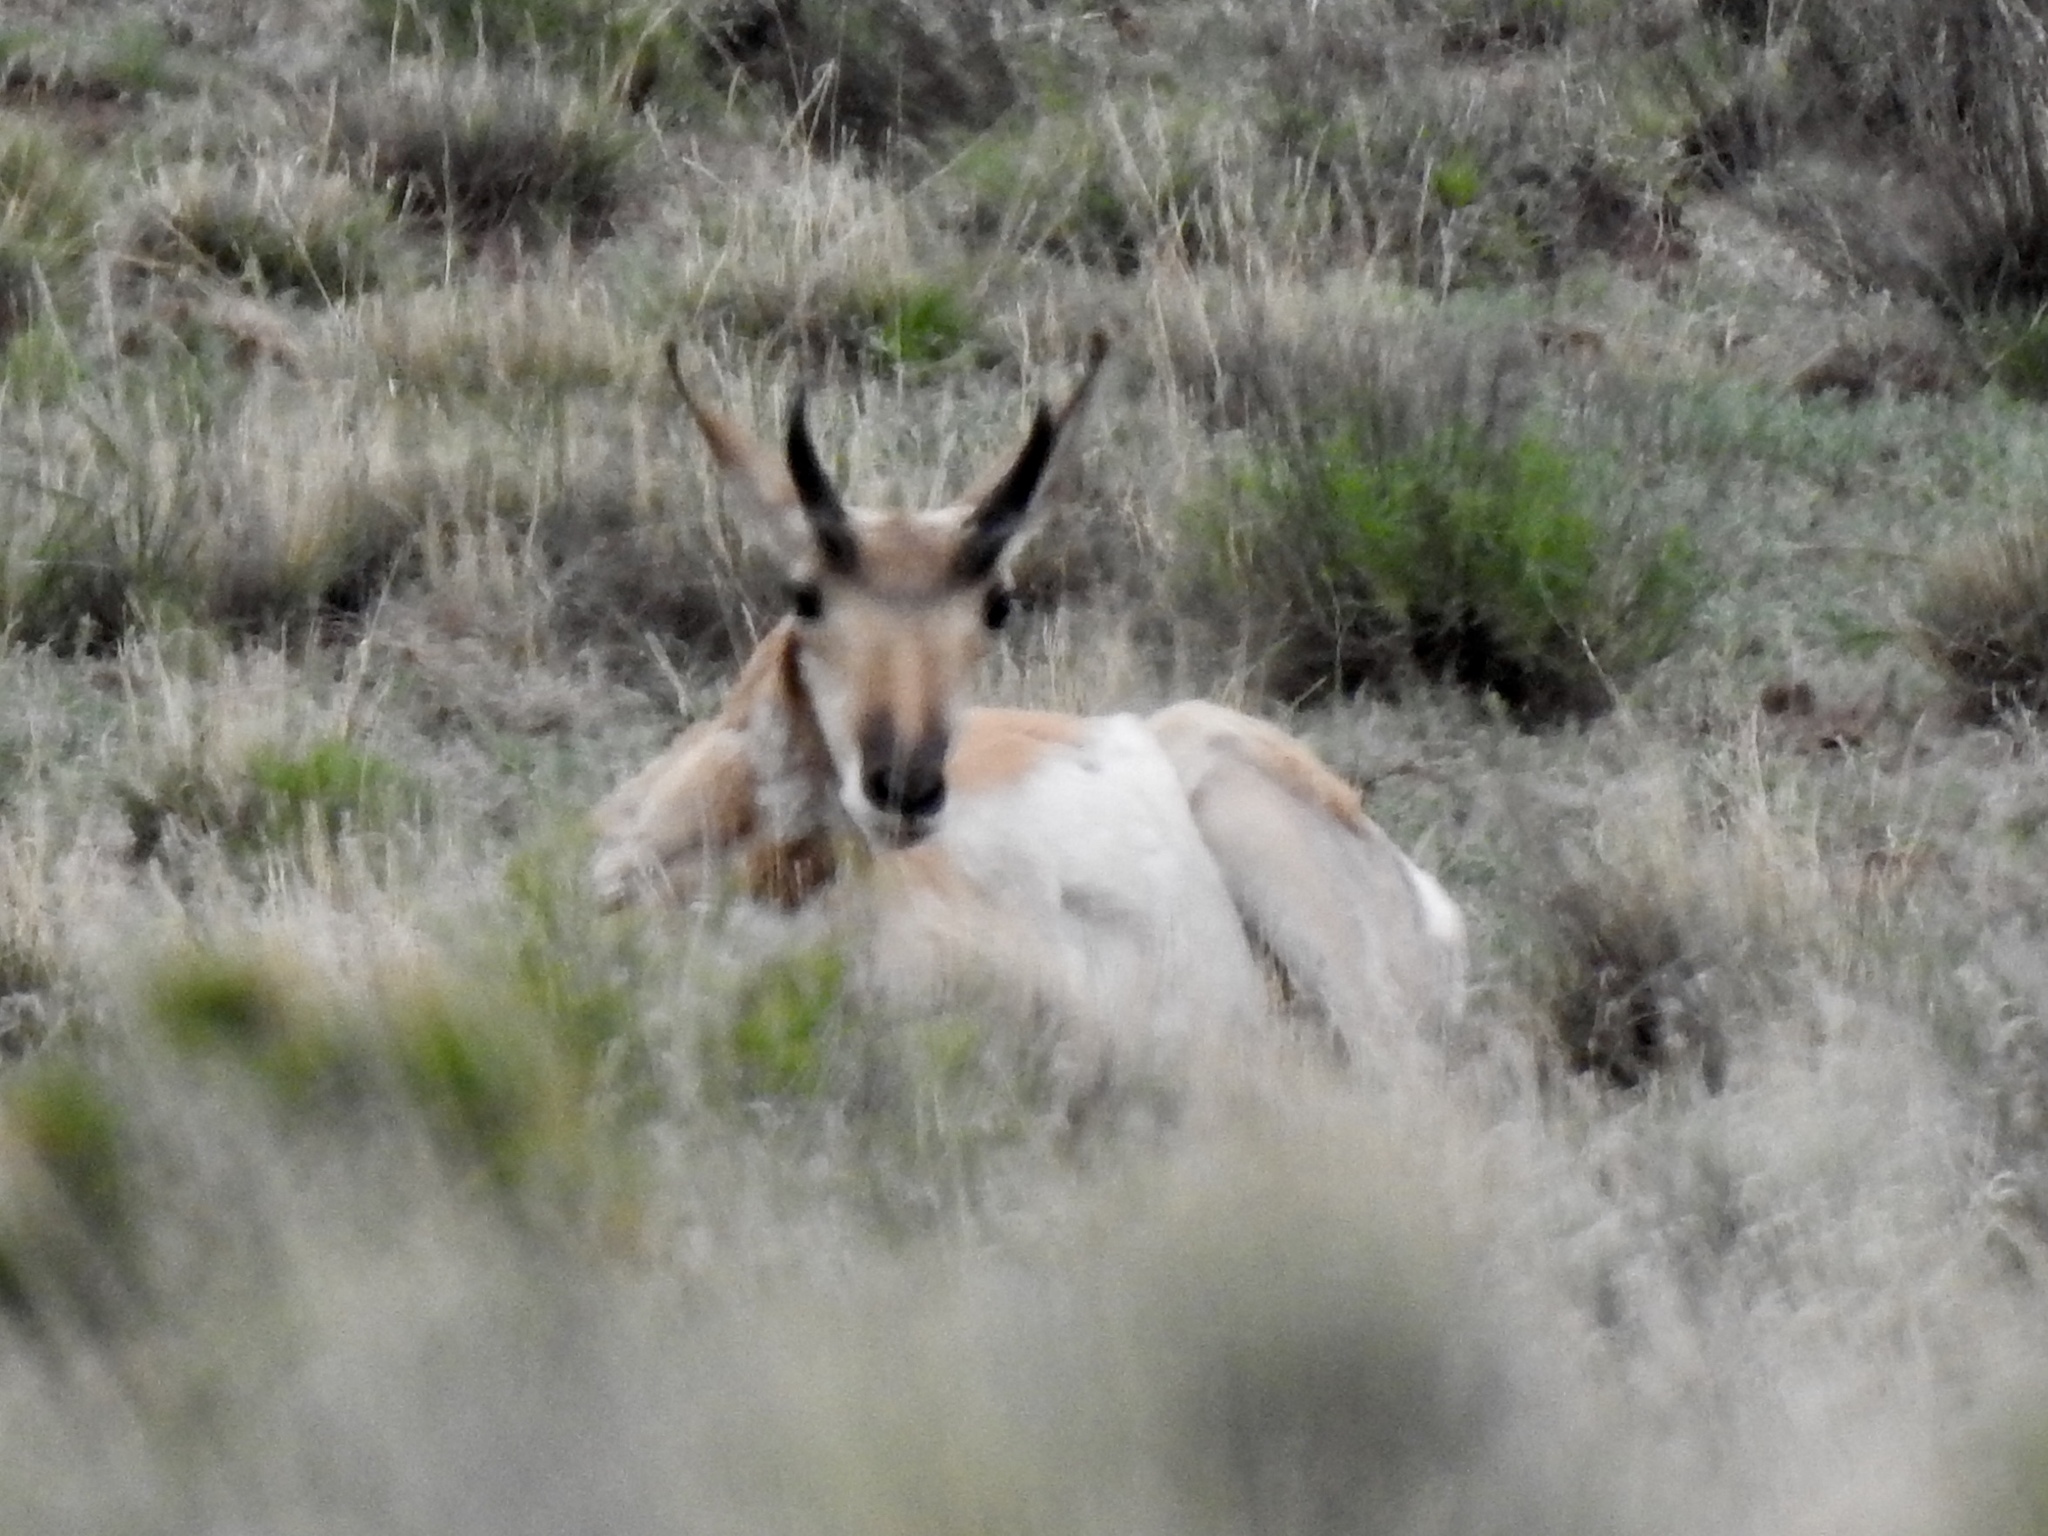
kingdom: Animalia
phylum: Chordata
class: Mammalia
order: Artiodactyla
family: Antilocapridae
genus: Antilocapra
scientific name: Antilocapra americana
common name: Pronghorn
